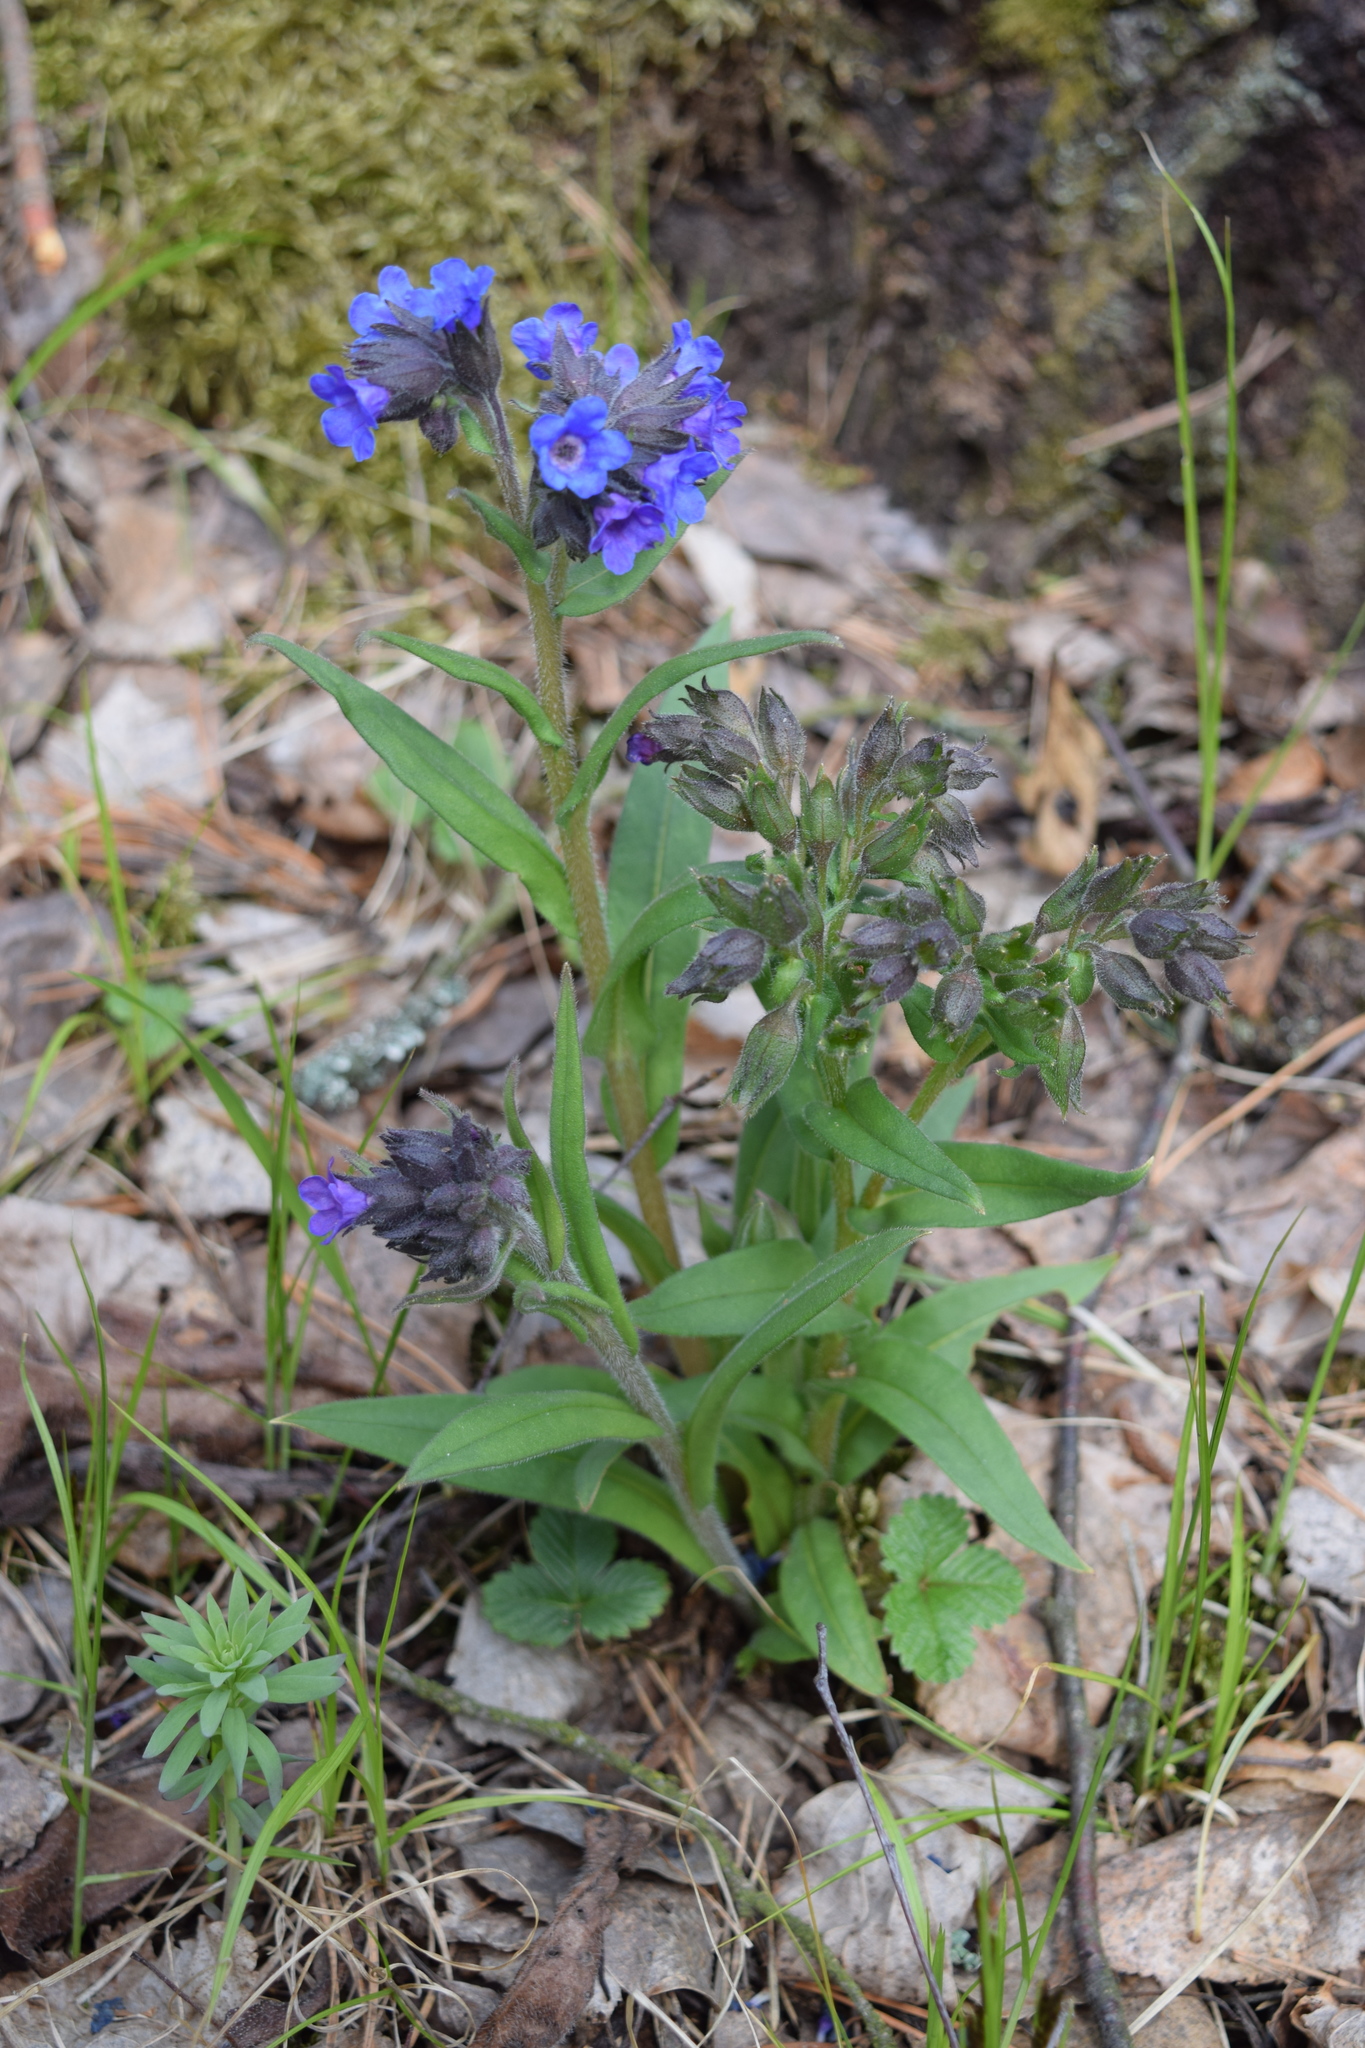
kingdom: Plantae
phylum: Tracheophyta
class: Magnoliopsida
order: Boraginales
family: Boraginaceae
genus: Pulmonaria
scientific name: Pulmonaria angustifolia
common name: Blue cowslip
